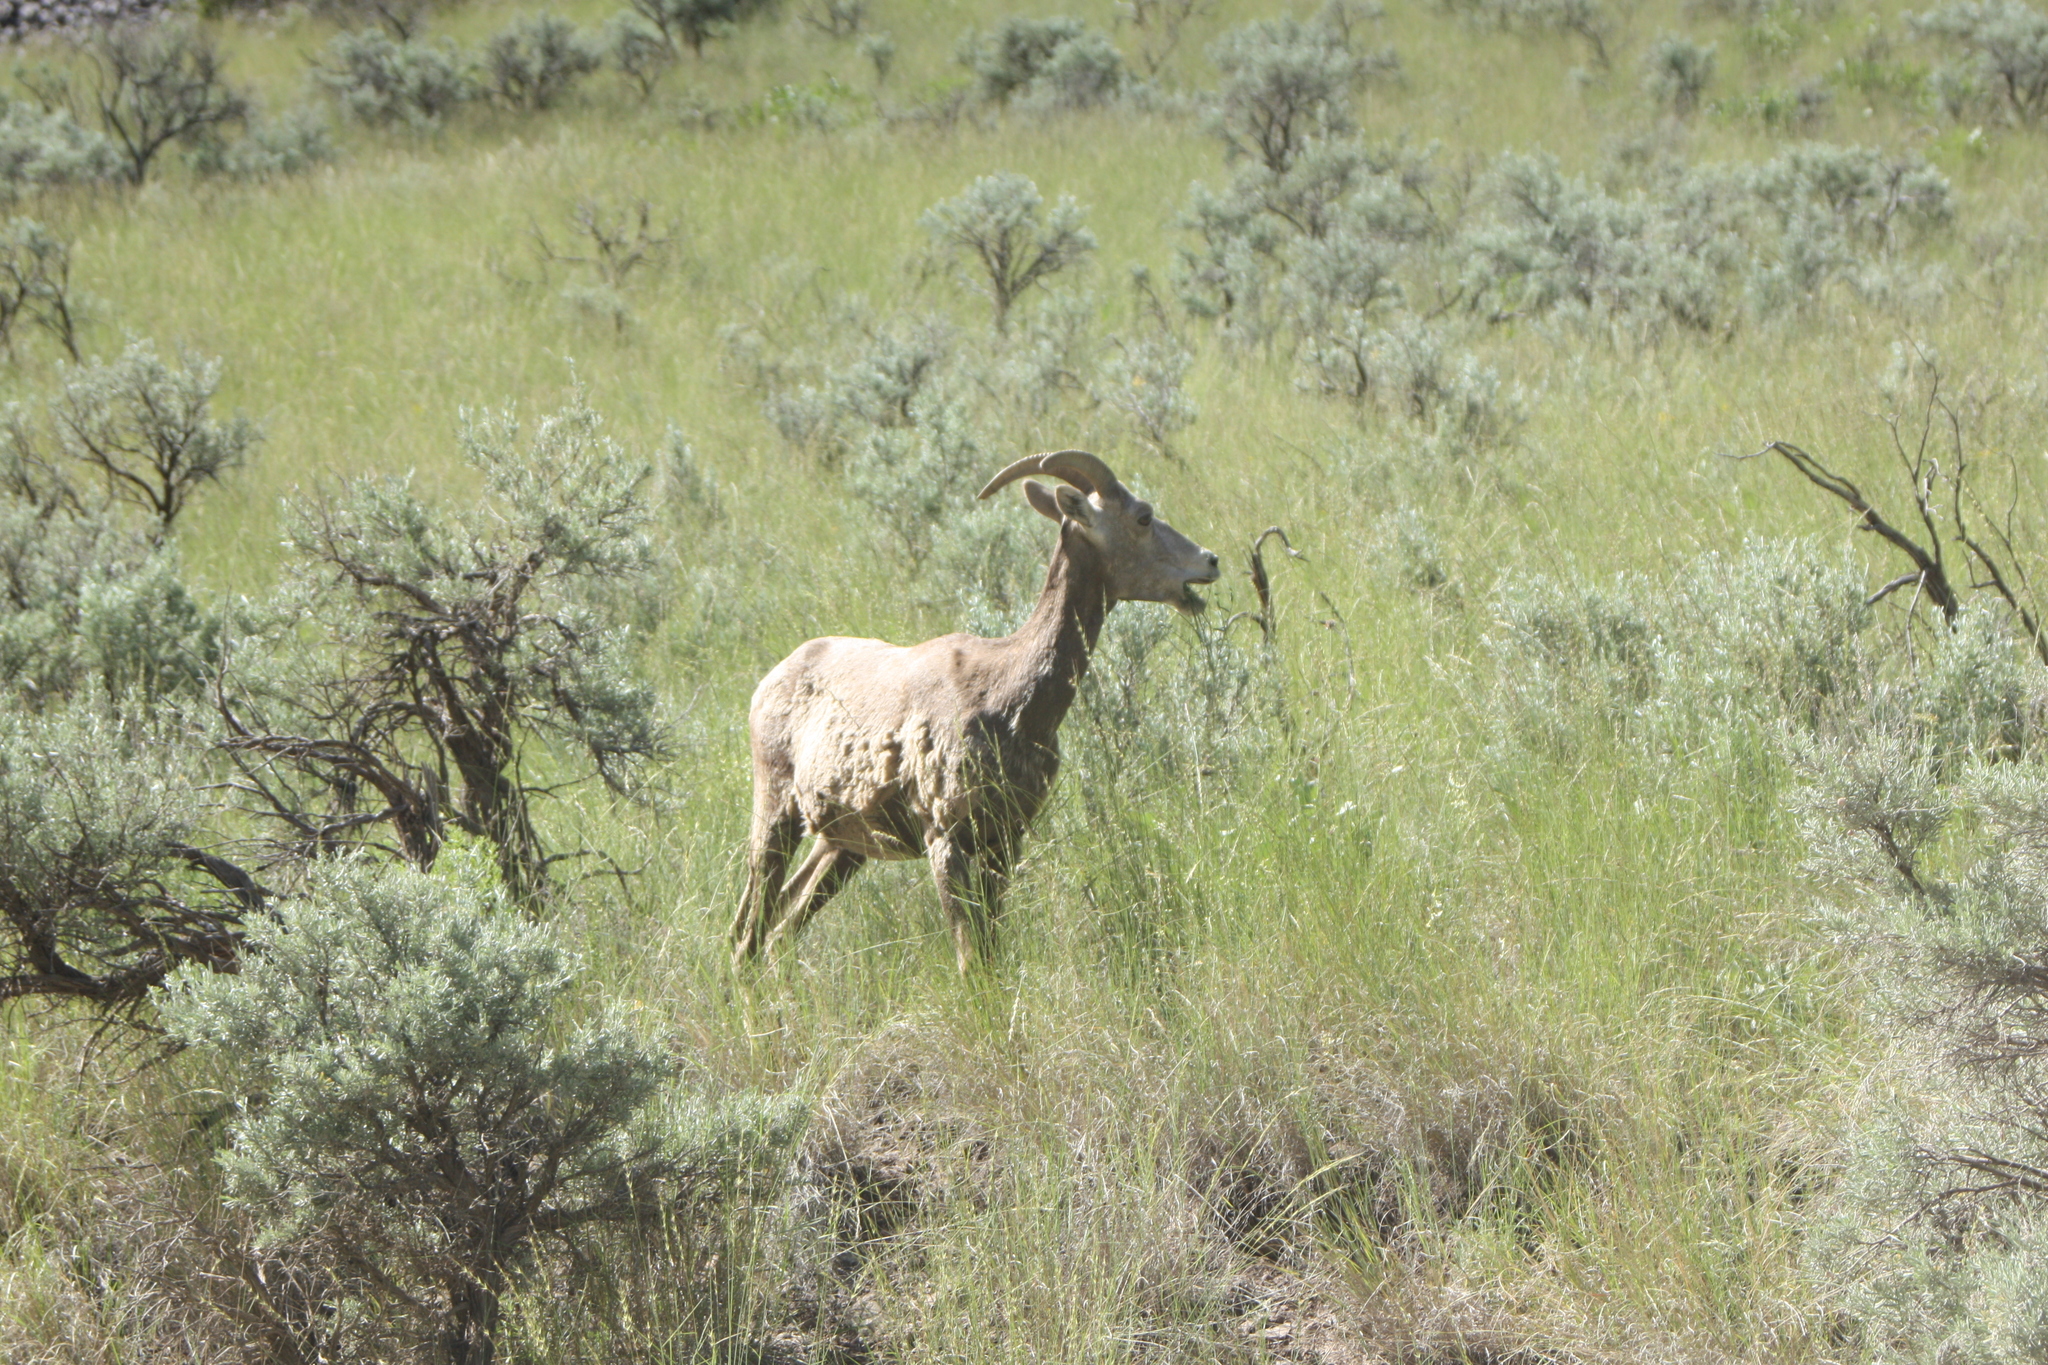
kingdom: Animalia
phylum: Chordata
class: Mammalia
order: Artiodactyla
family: Bovidae
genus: Ovis
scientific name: Ovis canadensis
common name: Bighorn sheep
